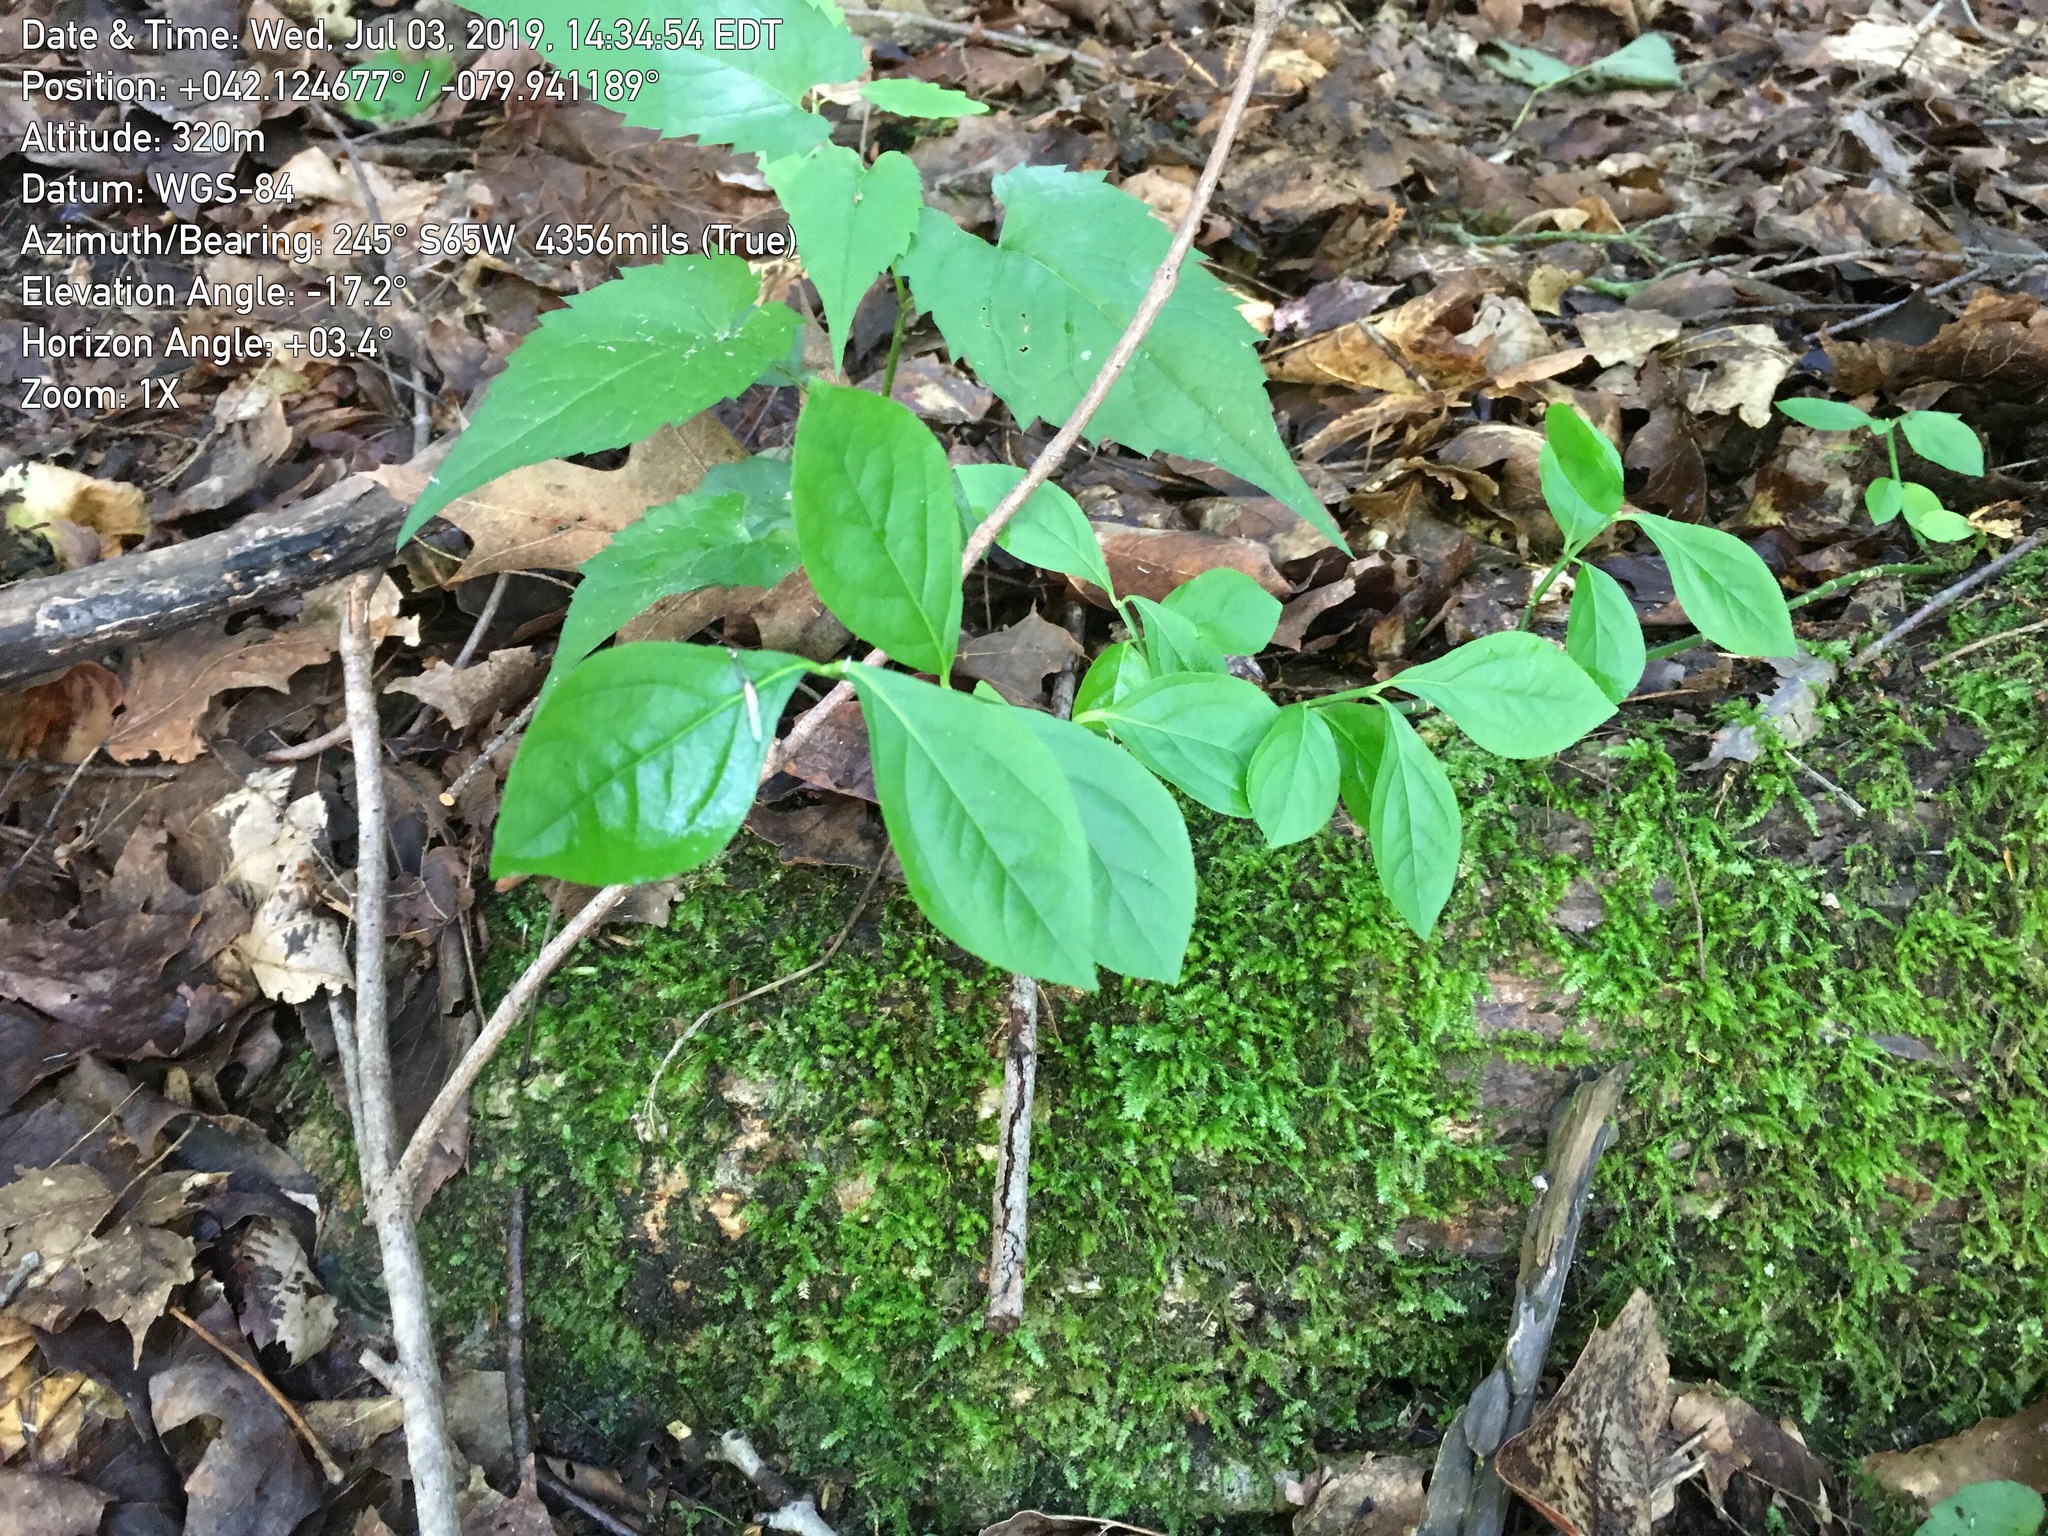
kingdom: Plantae
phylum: Tracheophyta
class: Magnoliopsida
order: Celastrales
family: Celastraceae
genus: Euonymus
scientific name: Euonymus obovatus
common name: Running strawberry-bush
